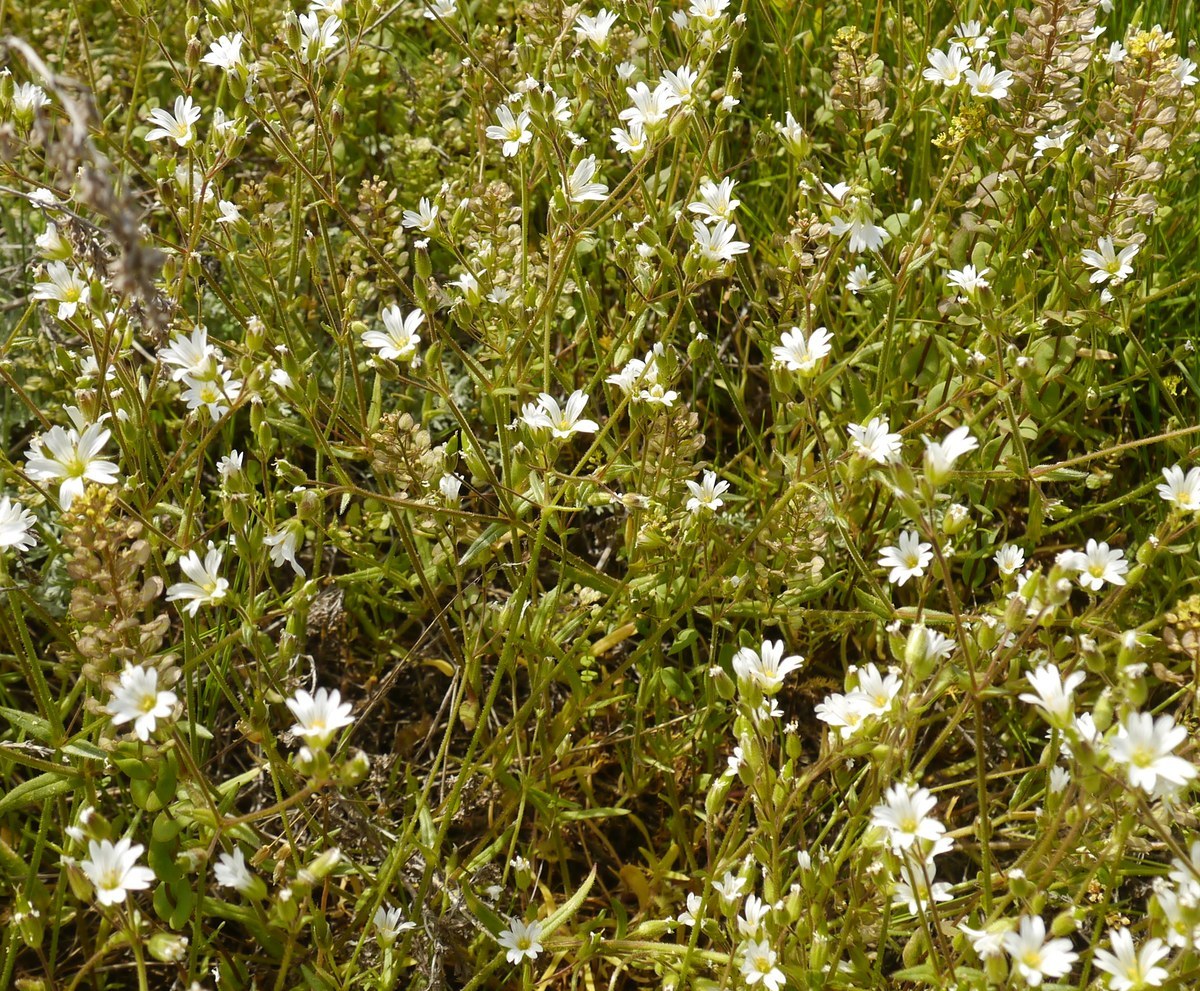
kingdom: Plantae
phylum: Tracheophyta
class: Magnoliopsida
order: Caryophyllales
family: Caryophyllaceae
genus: Dichodon
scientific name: Dichodon viscidum
